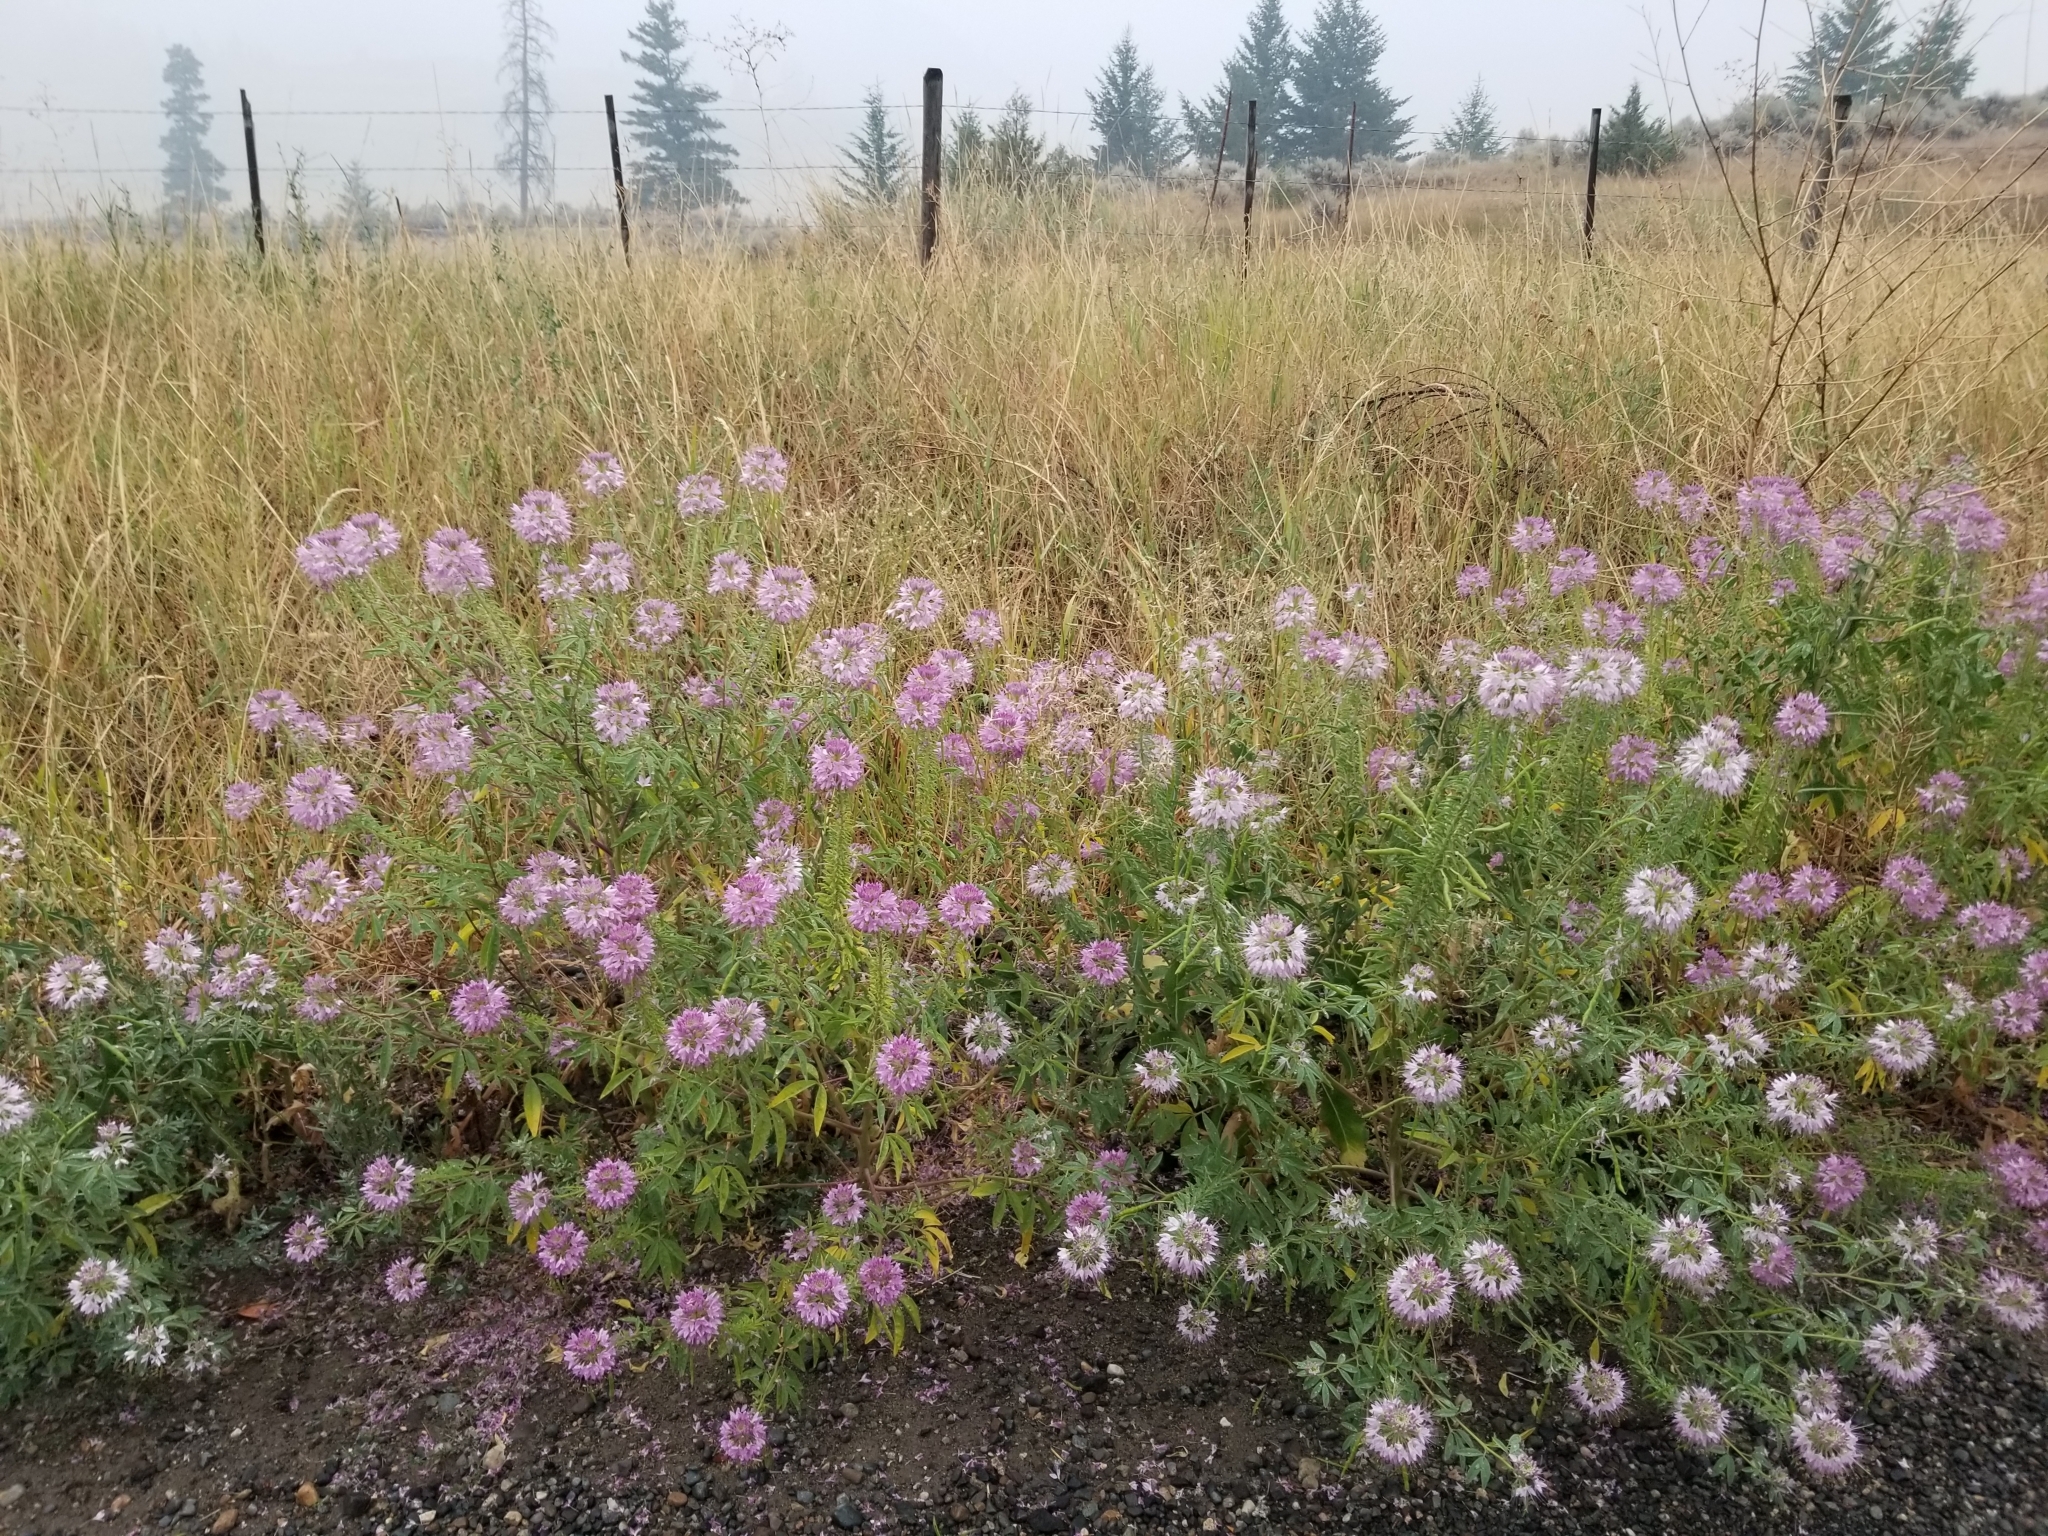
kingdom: Plantae
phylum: Tracheophyta
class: Magnoliopsida
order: Brassicales
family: Cleomaceae
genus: Cleomella
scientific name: Cleomella serrulata
